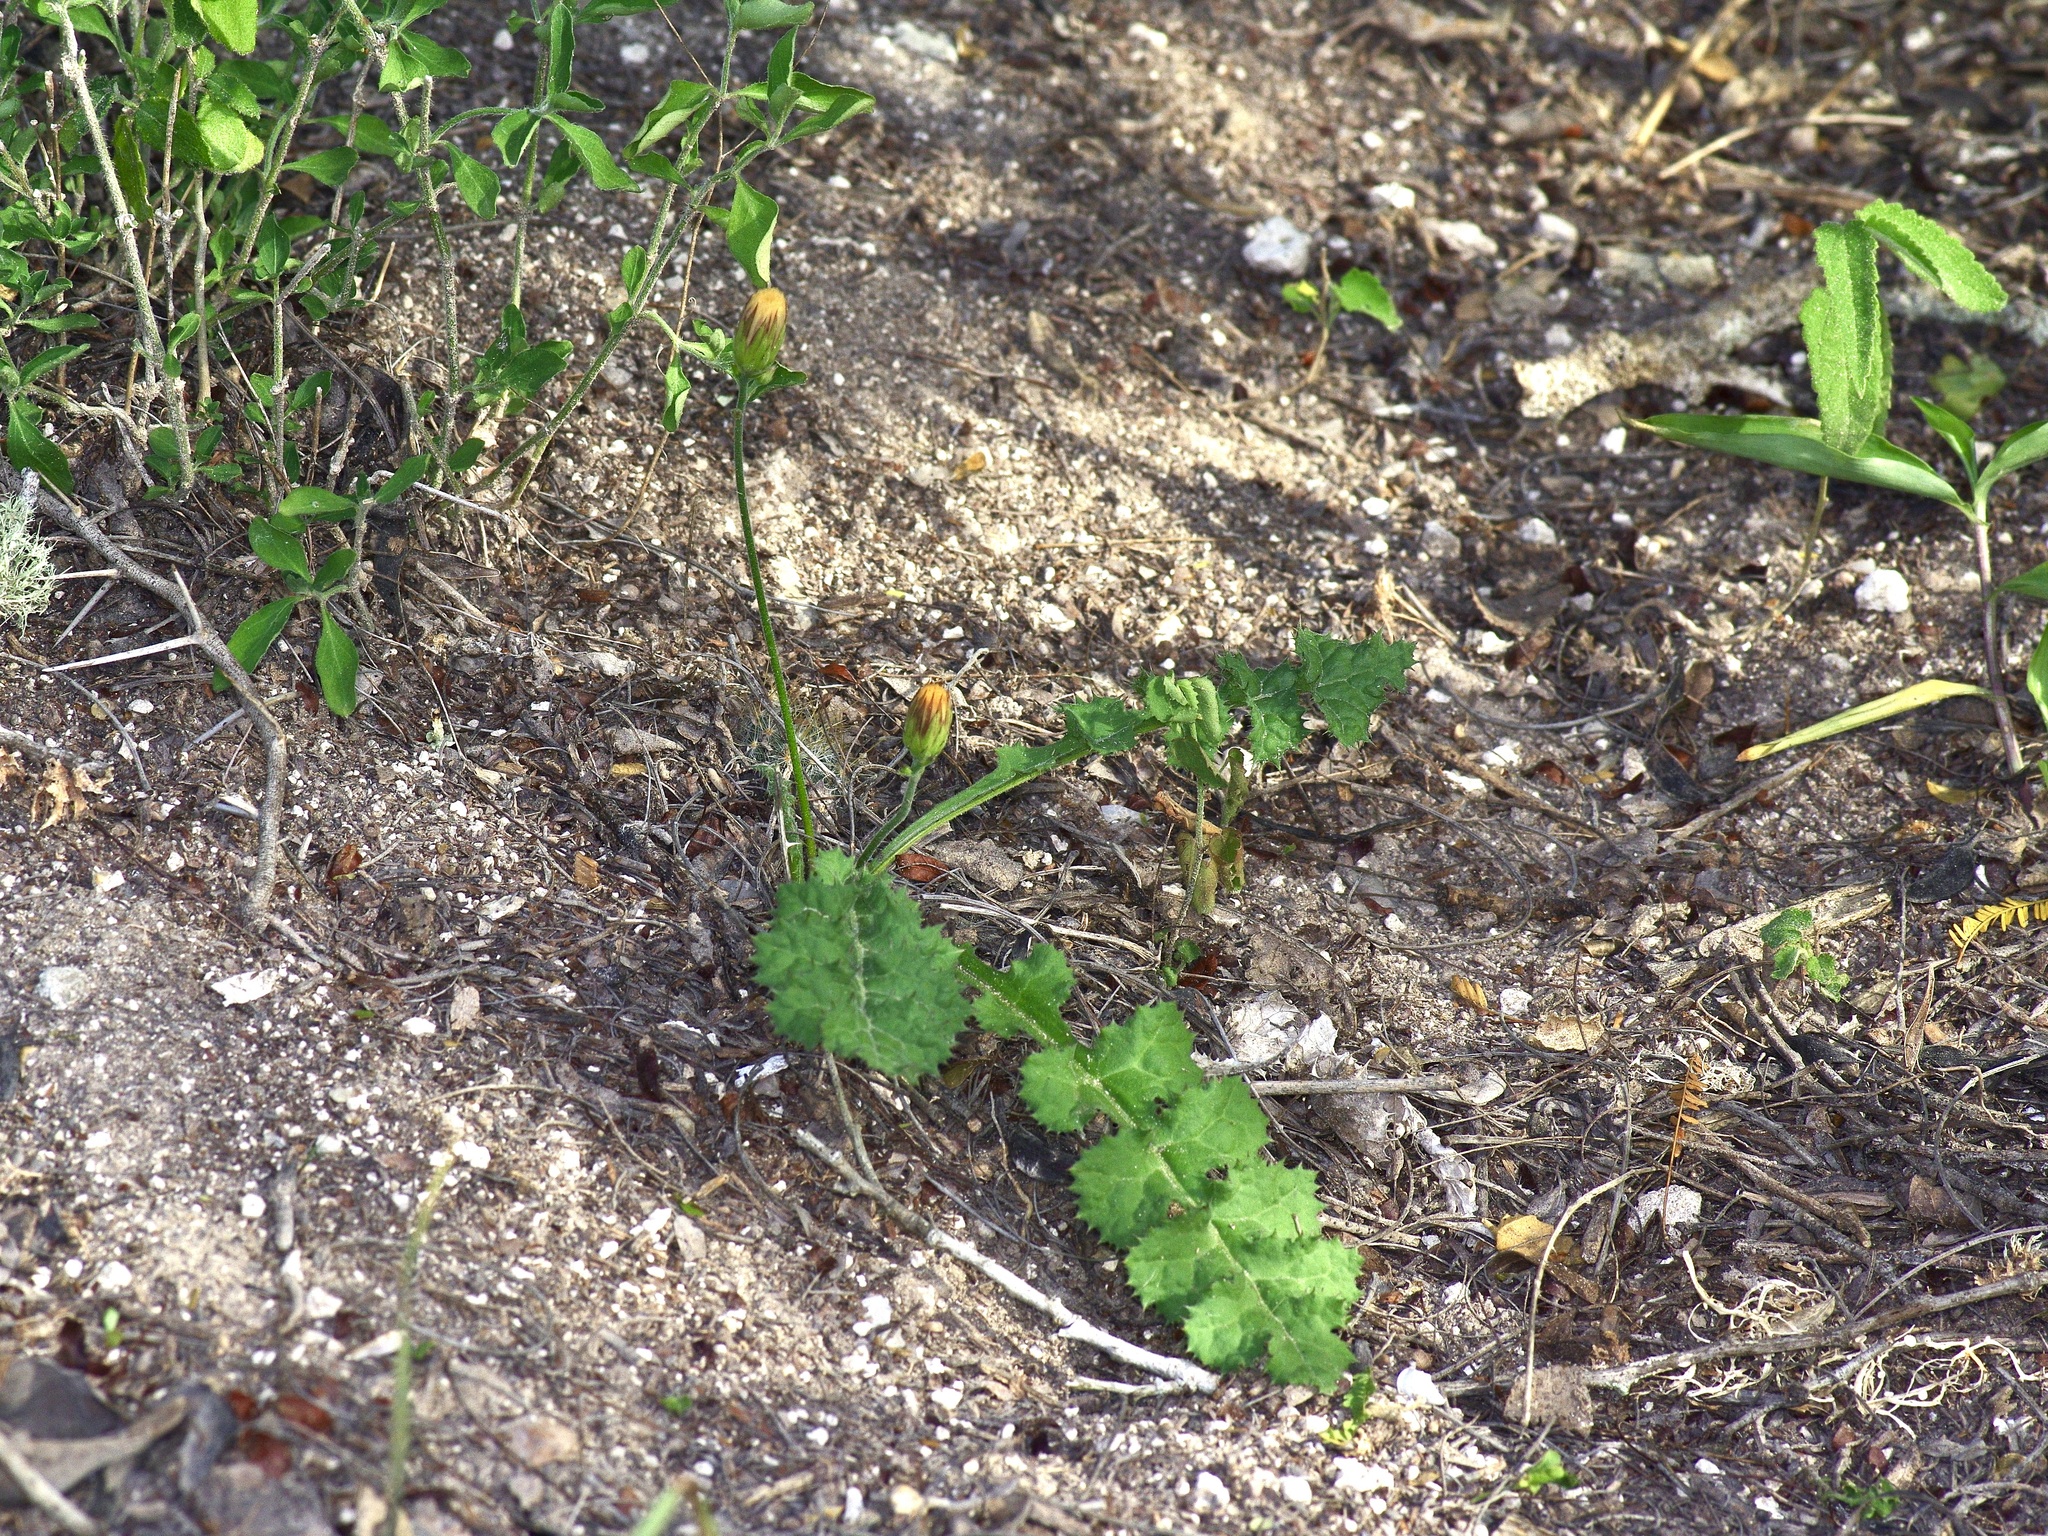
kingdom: Plantae
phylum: Tracheophyta
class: Magnoliopsida
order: Asterales
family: Asteraceae
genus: Acourtia
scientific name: Acourtia runcinata
